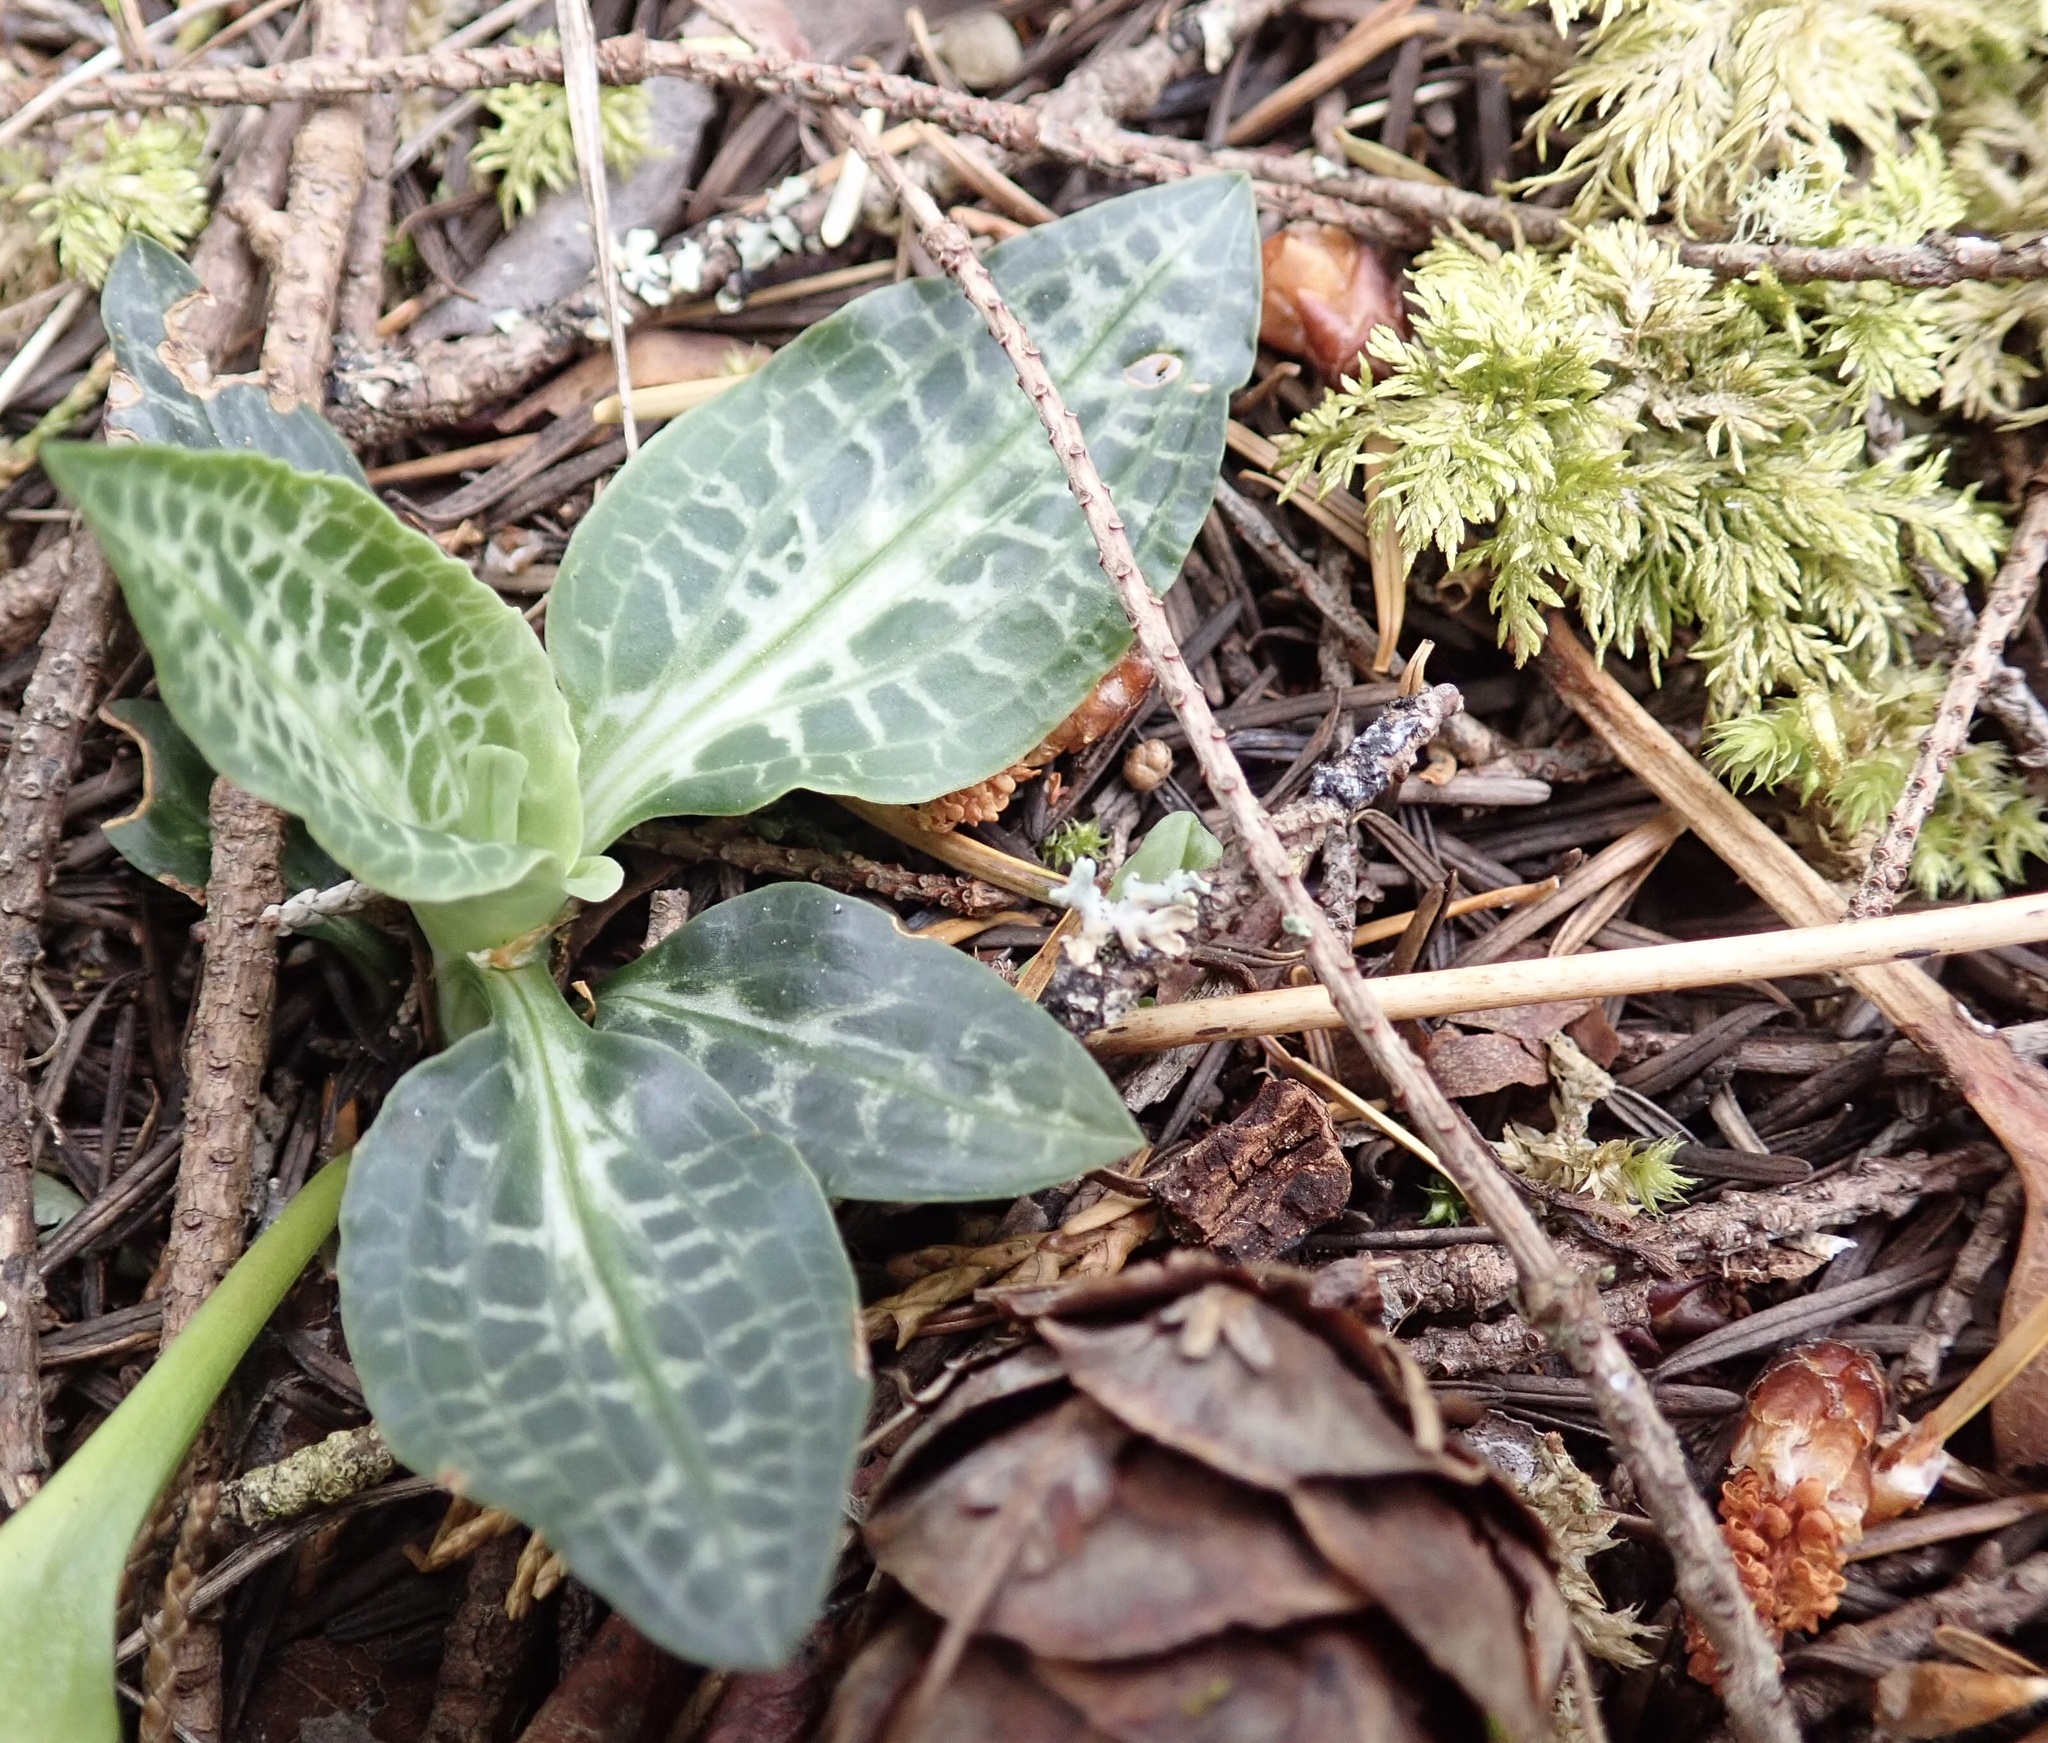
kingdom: Plantae
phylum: Tracheophyta
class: Liliopsida
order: Asparagales
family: Orchidaceae
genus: Goodyera
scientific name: Goodyera oblongifolia
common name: Giant rattlesnake-plantain
